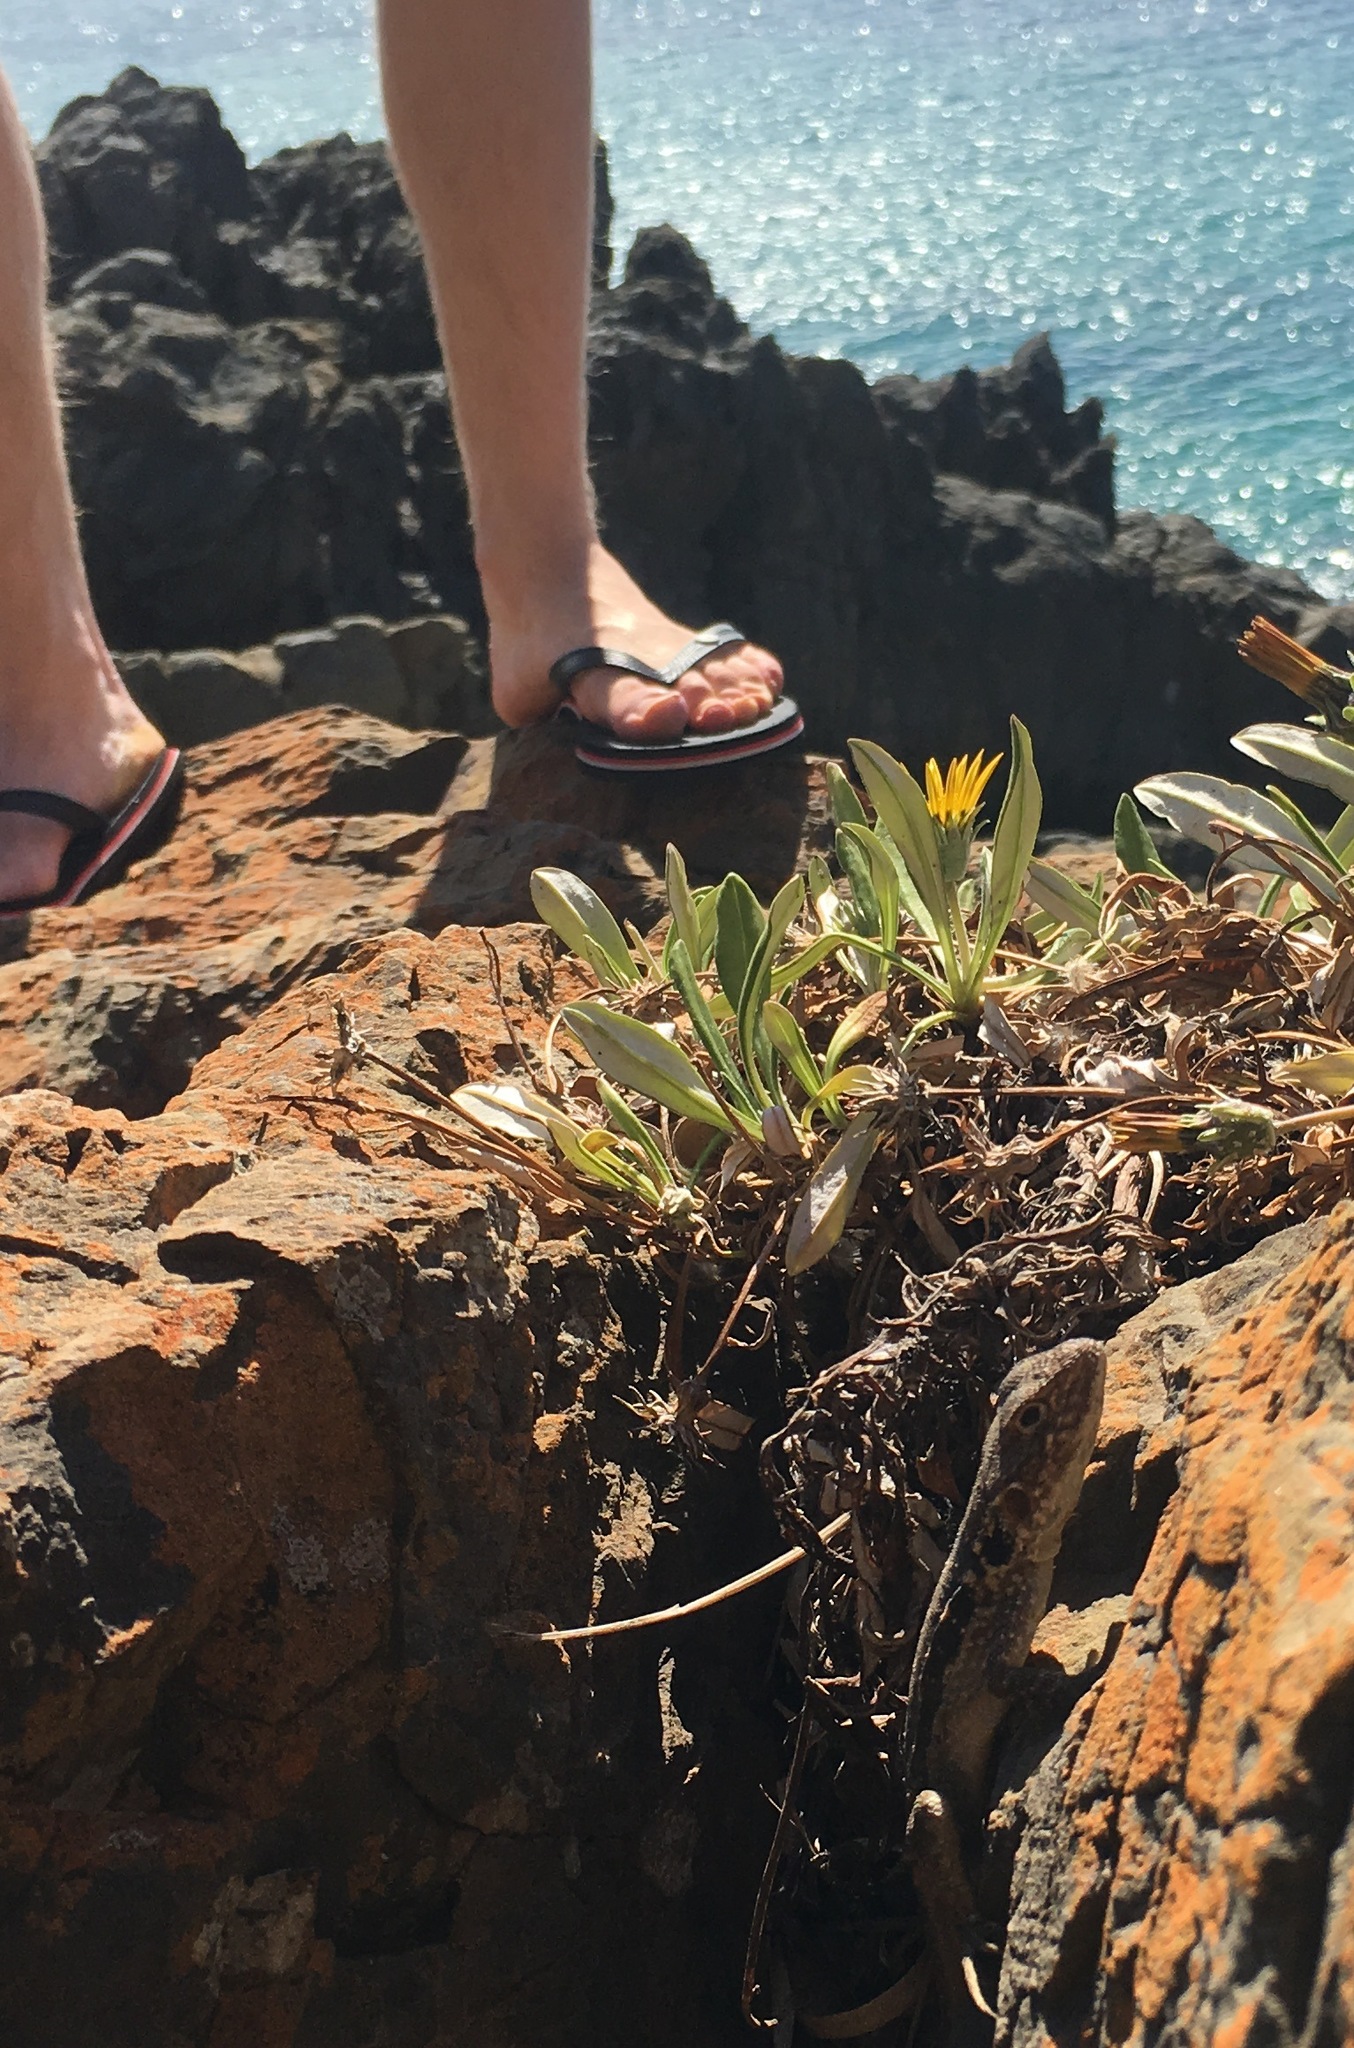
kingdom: Animalia
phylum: Chordata
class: Squamata
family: Agamidae
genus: Ctenophorus
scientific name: Ctenophorus decresii
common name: Tawny dragon
